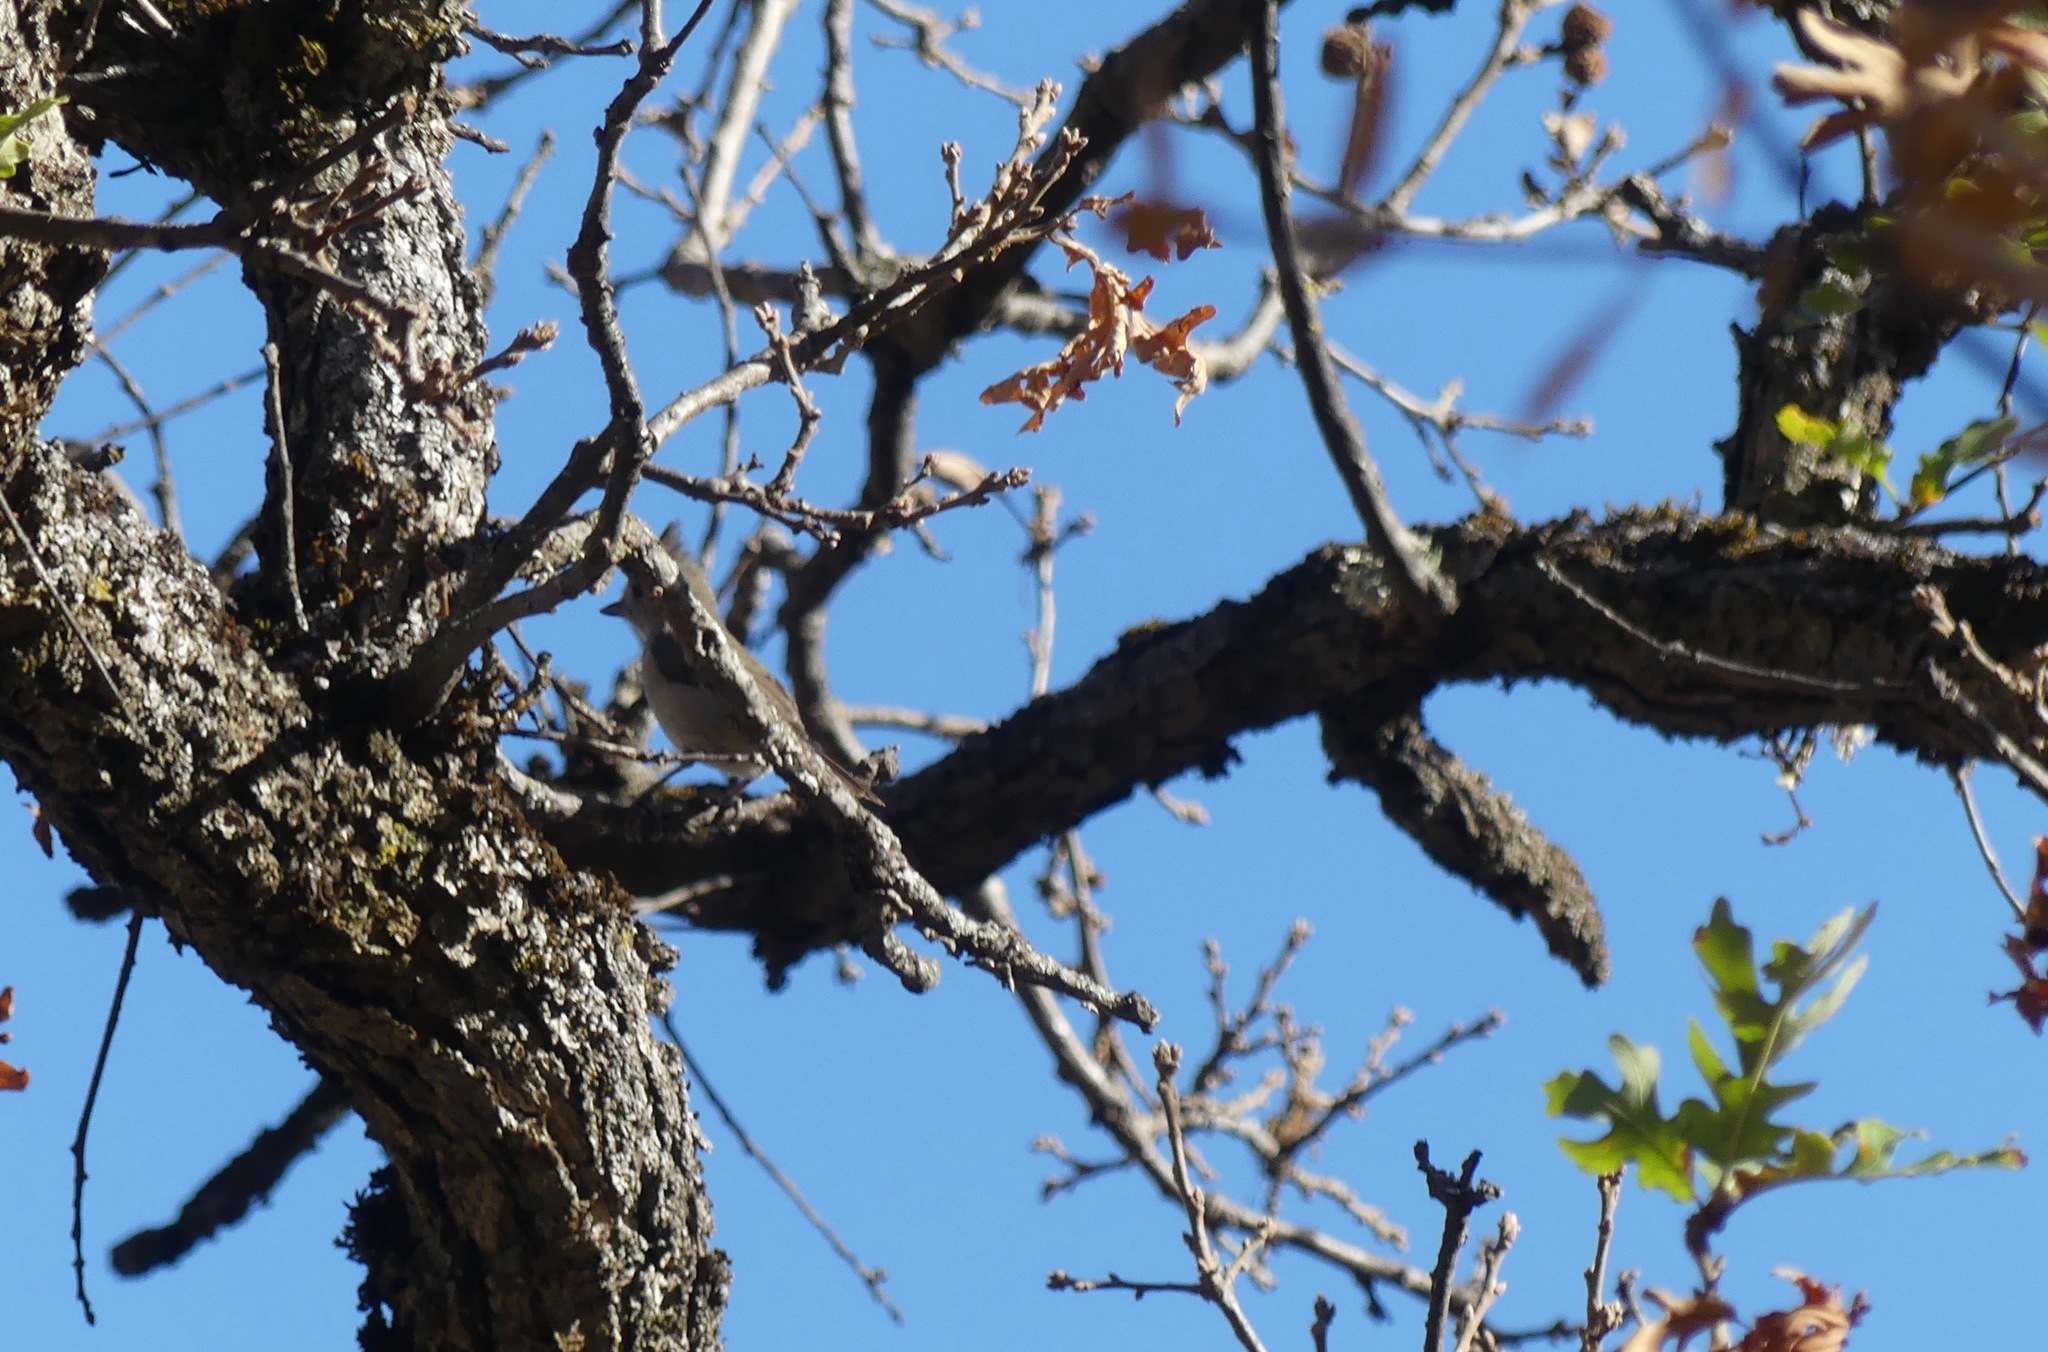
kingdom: Animalia
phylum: Chordata
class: Aves
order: Passeriformes
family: Paridae
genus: Baeolophus
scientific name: Baeolophus inornatus
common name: Oak titmouse
